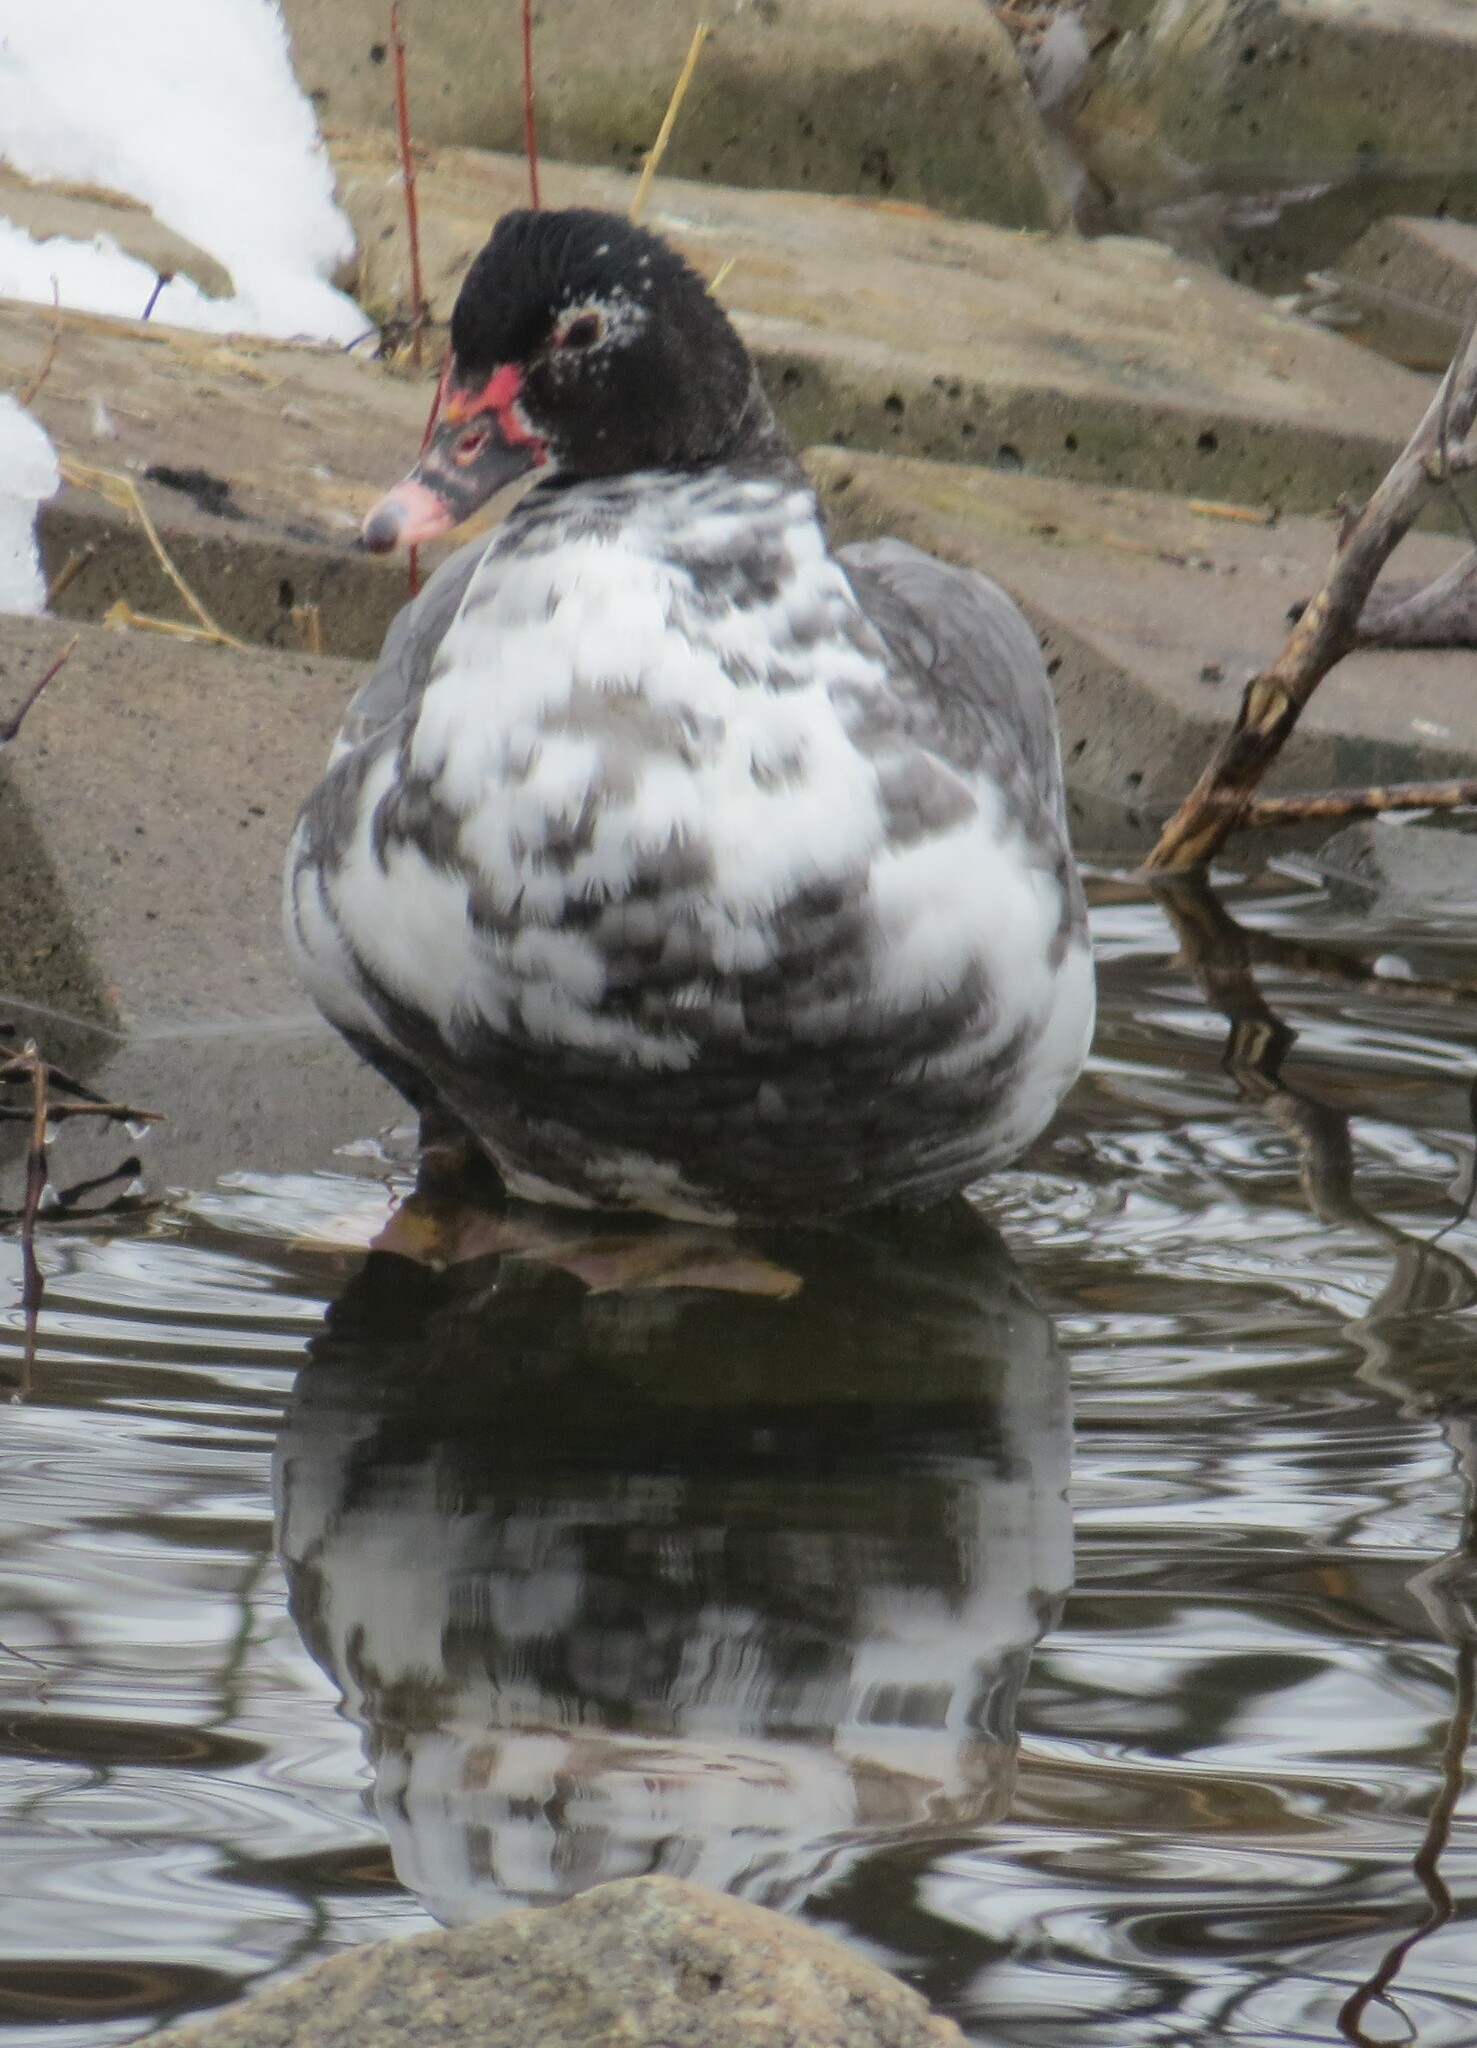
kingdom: Animalia
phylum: Chordata
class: Aves
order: Anseriformes
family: Anatidae
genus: Cairina
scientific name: Cairina moschata
